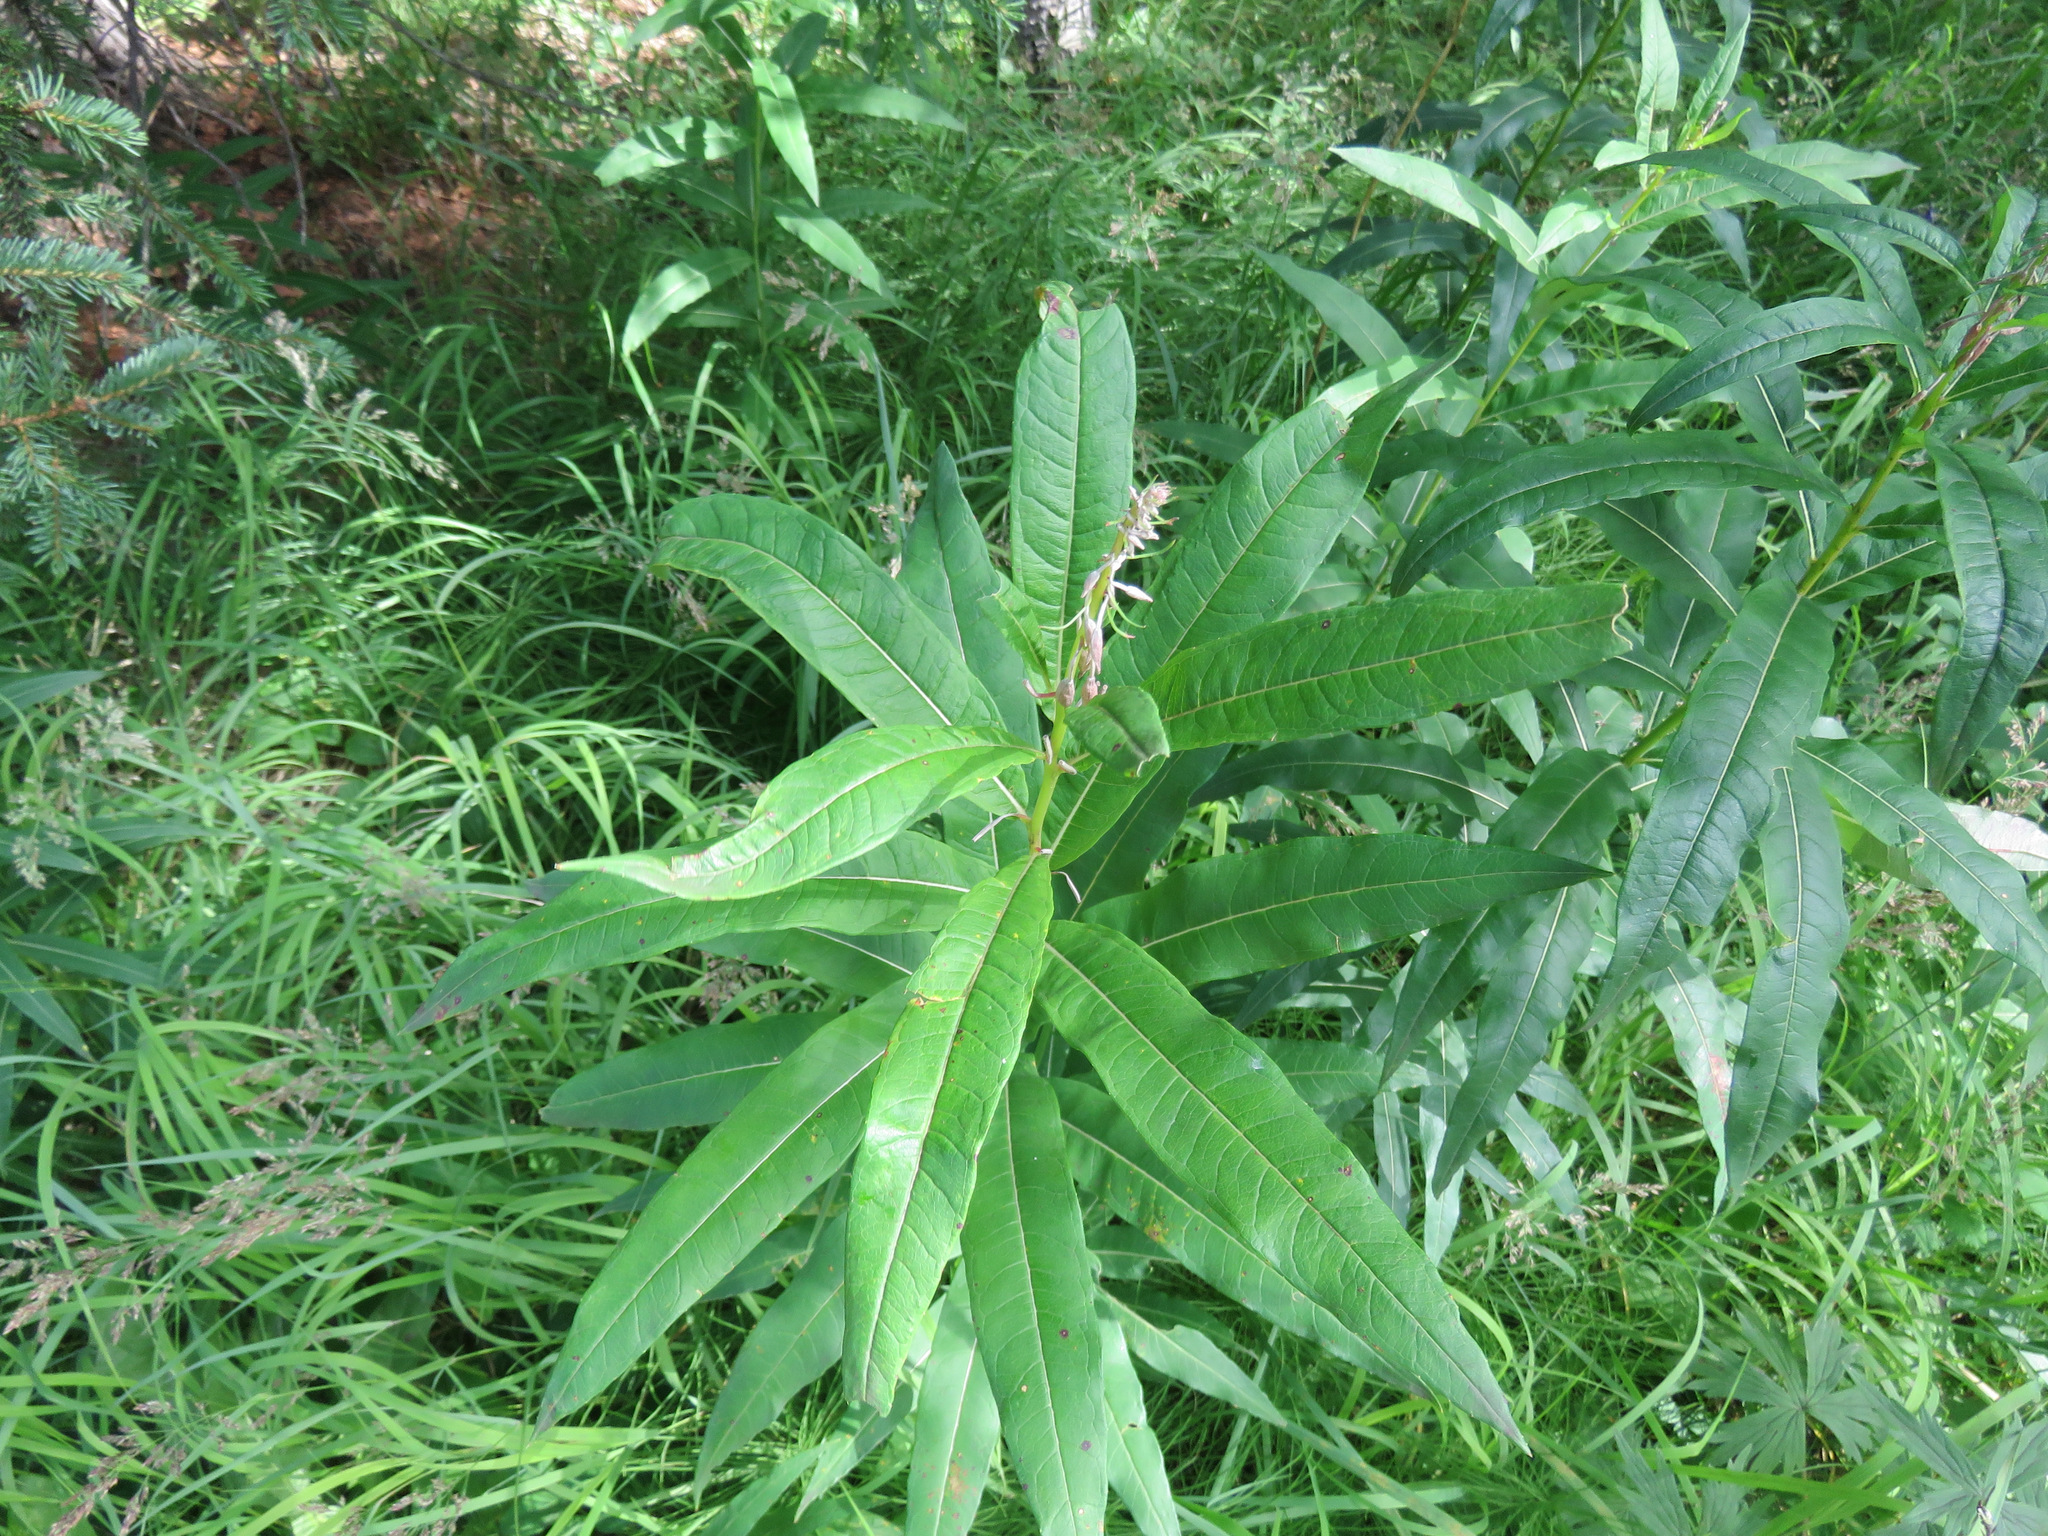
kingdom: Plantae
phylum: Tracheophyta
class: Magnoliopsida
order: Myrtales
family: Onagraceae
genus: Chamaenerion
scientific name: Chamaenerion angustifolium
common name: Fireweed
